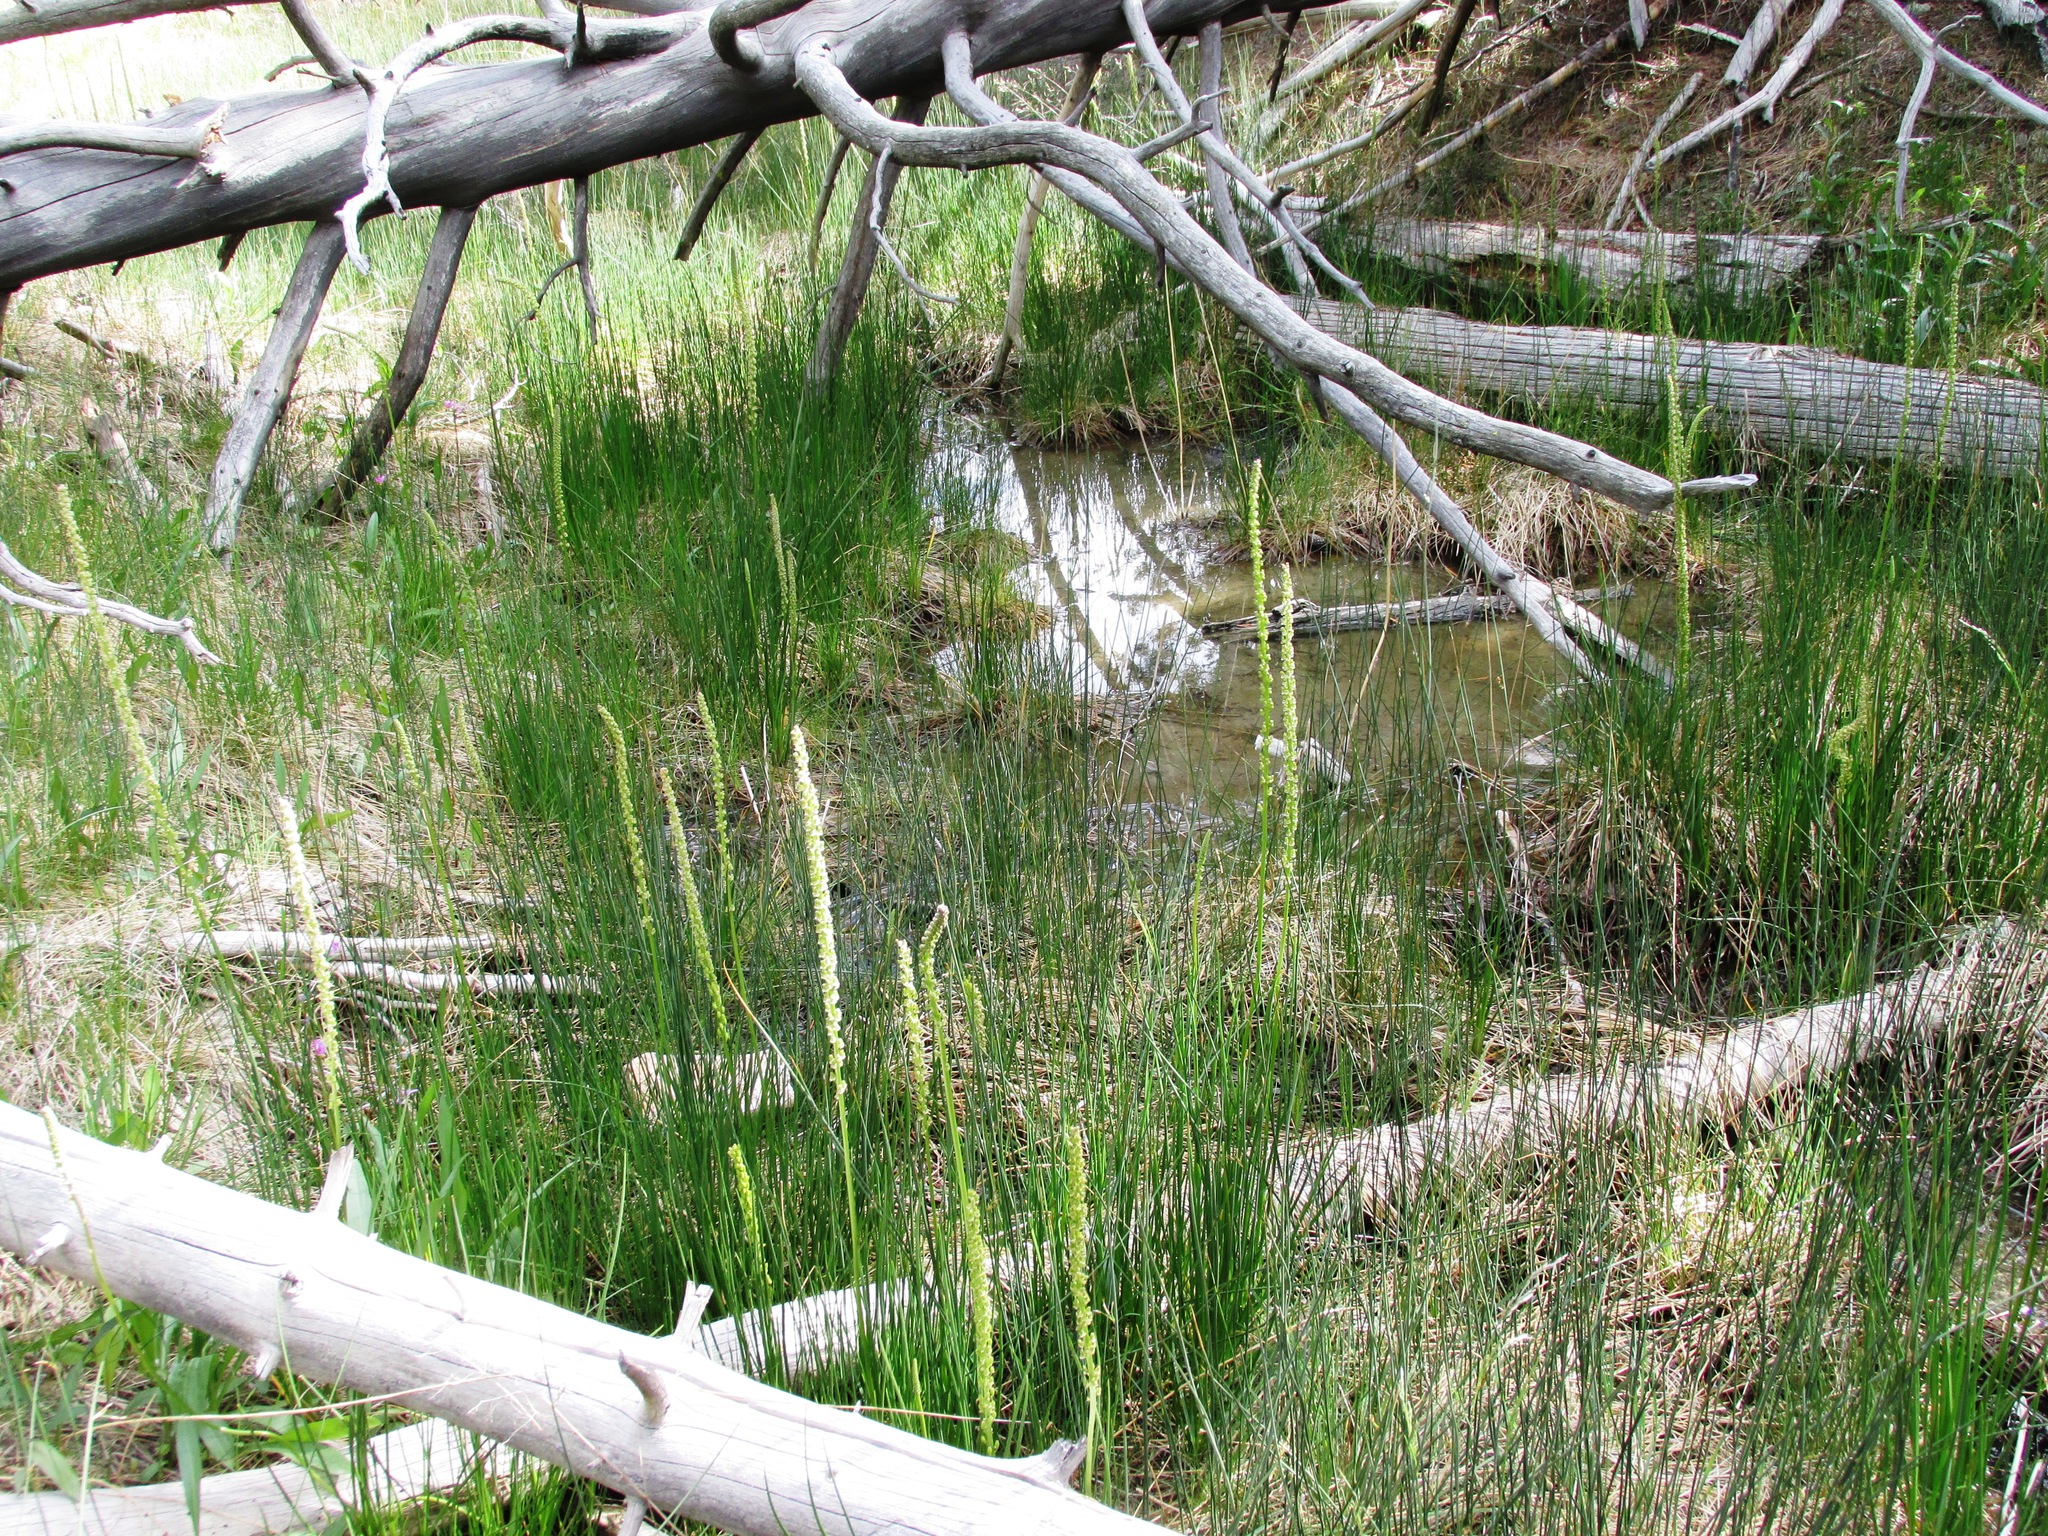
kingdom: Plantae
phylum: Tracheophyta
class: Liliopsida
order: Alismatales
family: Juncaginaceae
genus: Triglochin
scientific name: Triglochin maritima
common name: Sea arrowgrass
